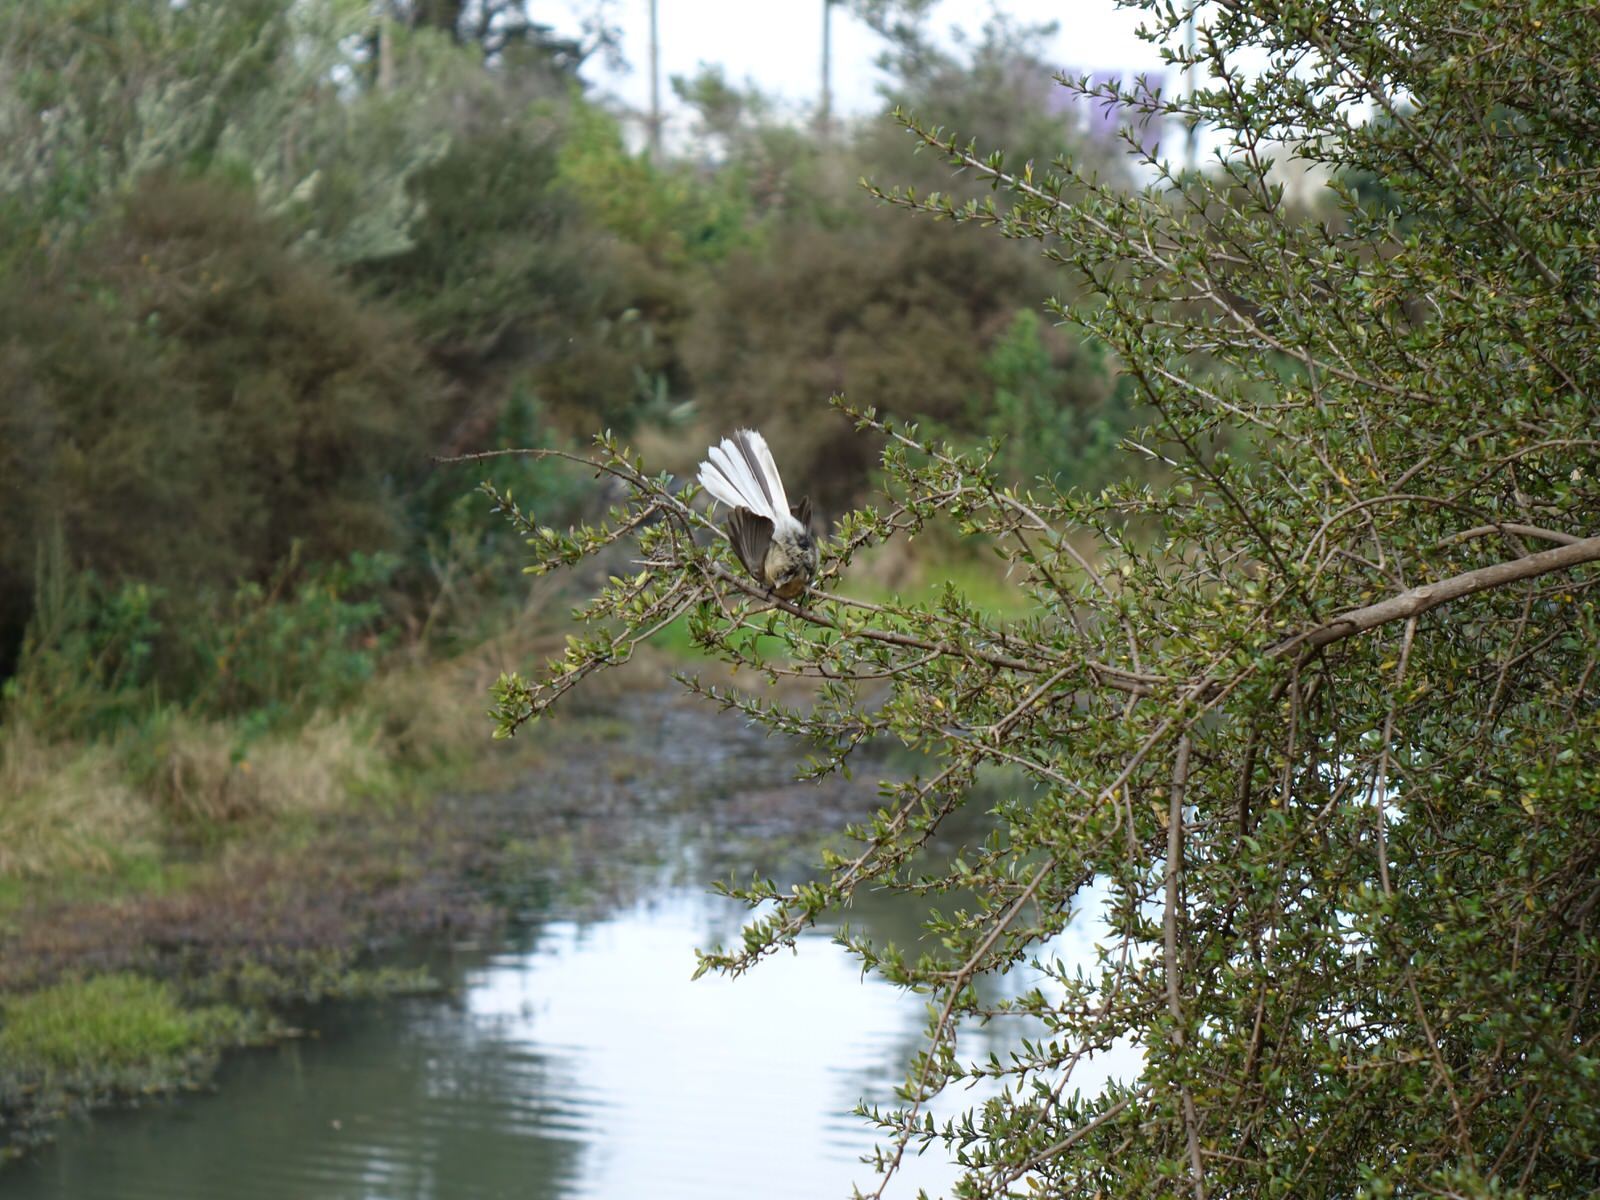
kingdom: Animalia
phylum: Chordata
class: Aves
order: Passeriformes
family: Rhipiduridae
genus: Rhipidura
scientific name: Rhipidura fuliginosa
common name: New zealand fantail
